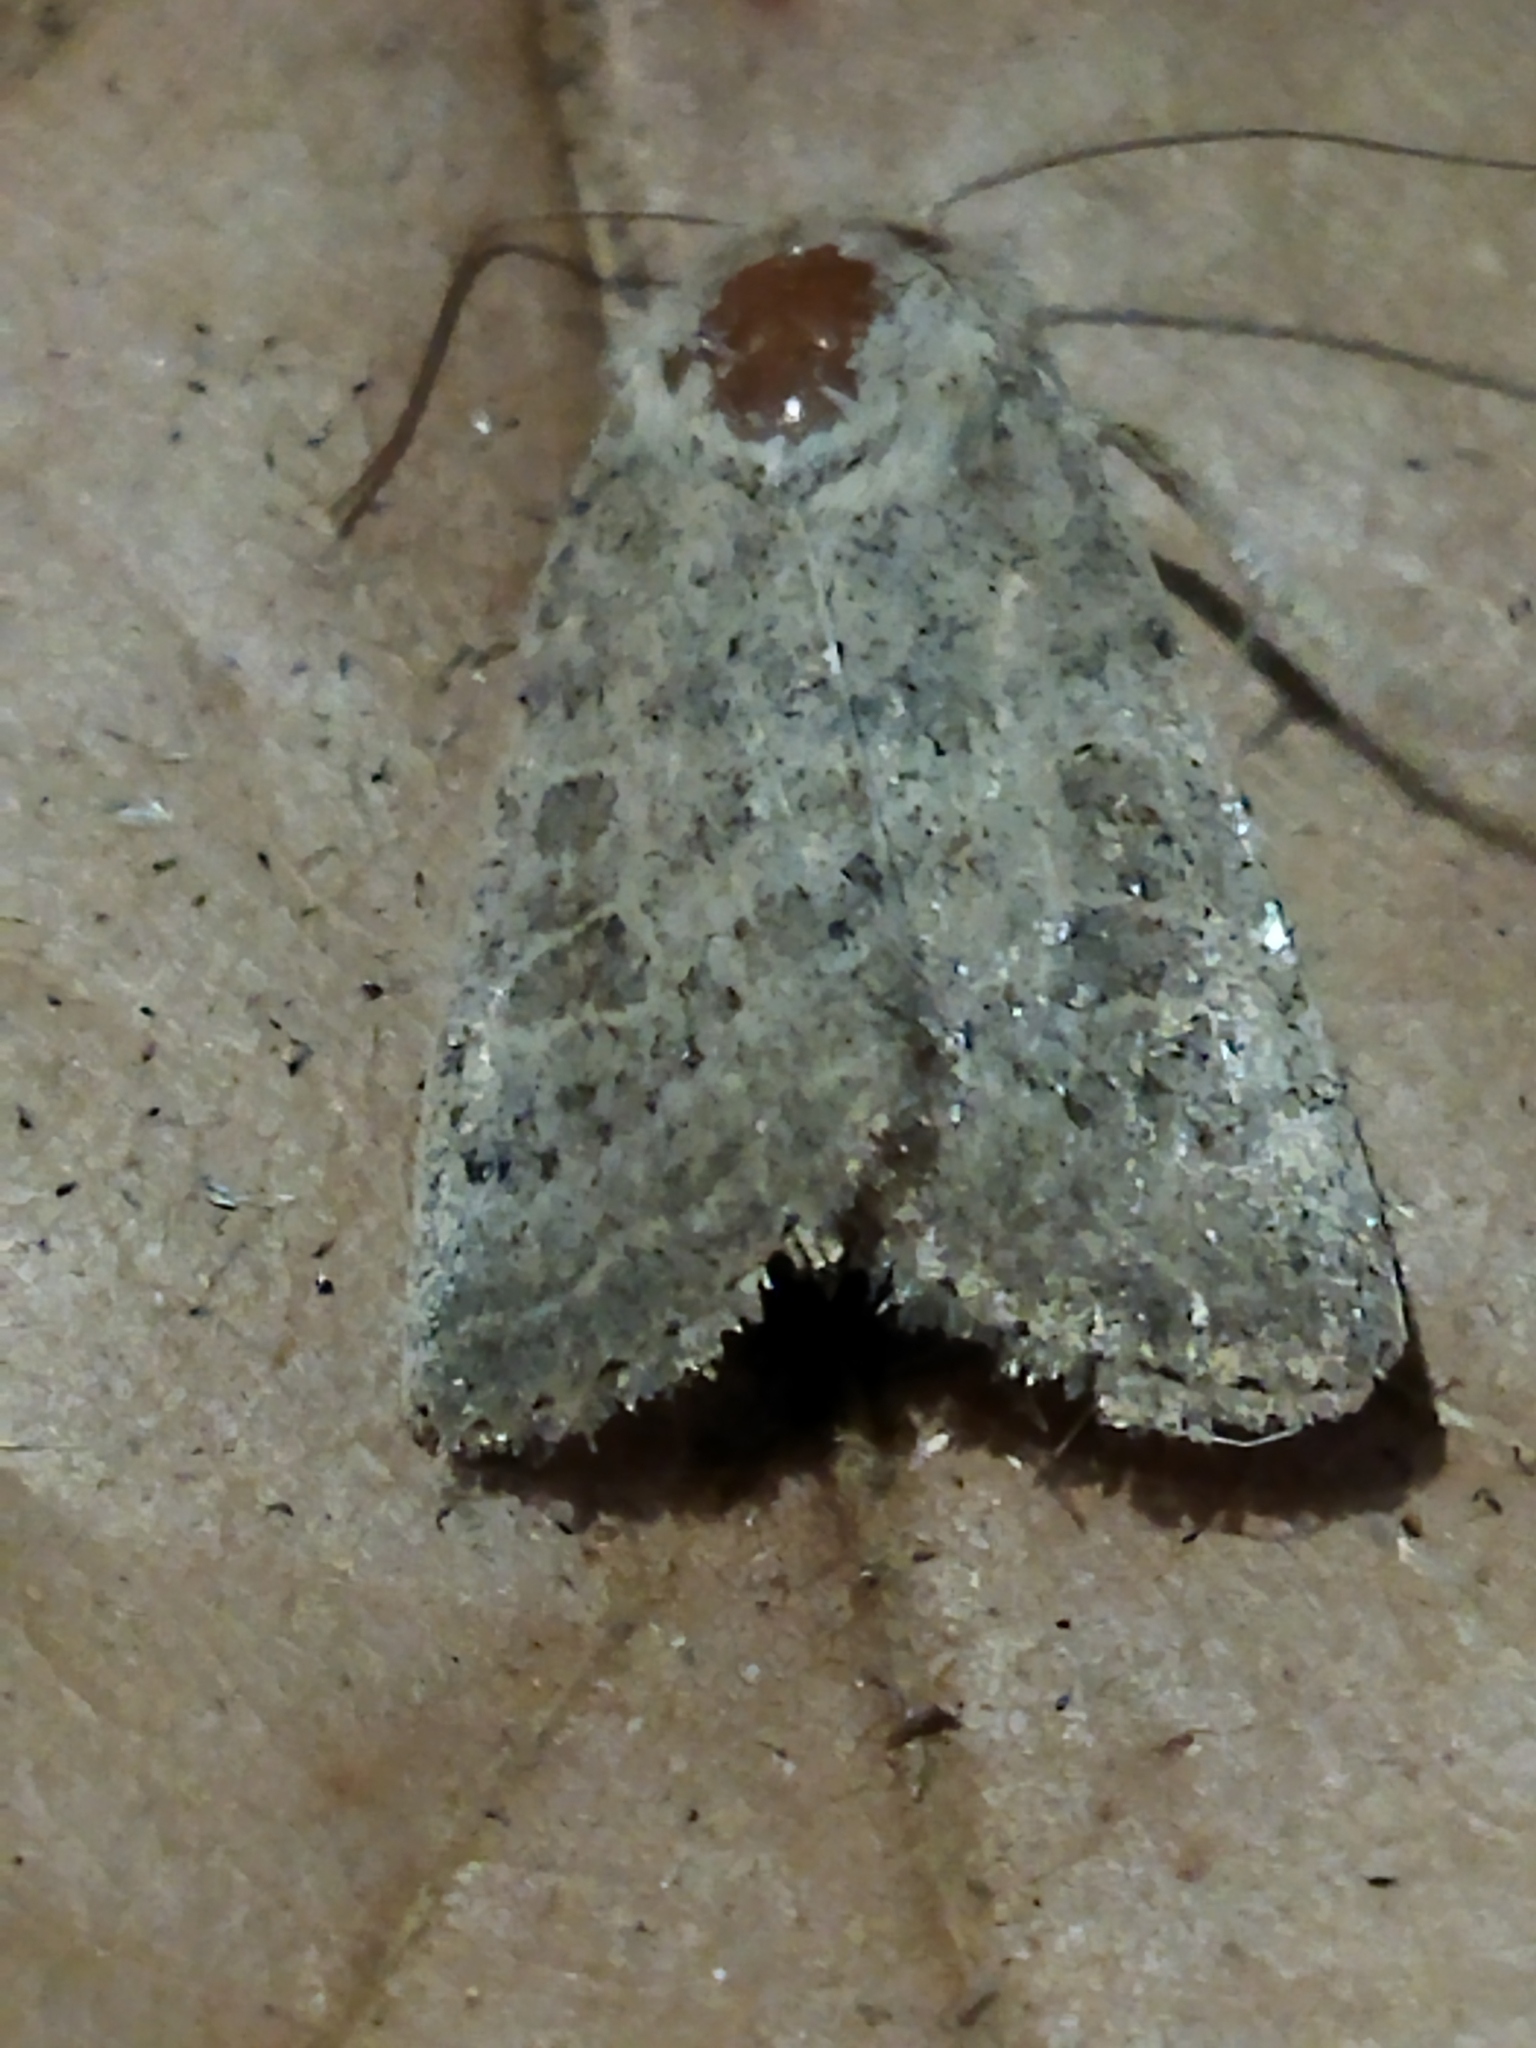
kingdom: Animalia
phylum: Arthropoda
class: Insecta
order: Lepidoptera
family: Noctuidae
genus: Hoplodrina
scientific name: Hoplodrina ambigua
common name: Vine's rustic
